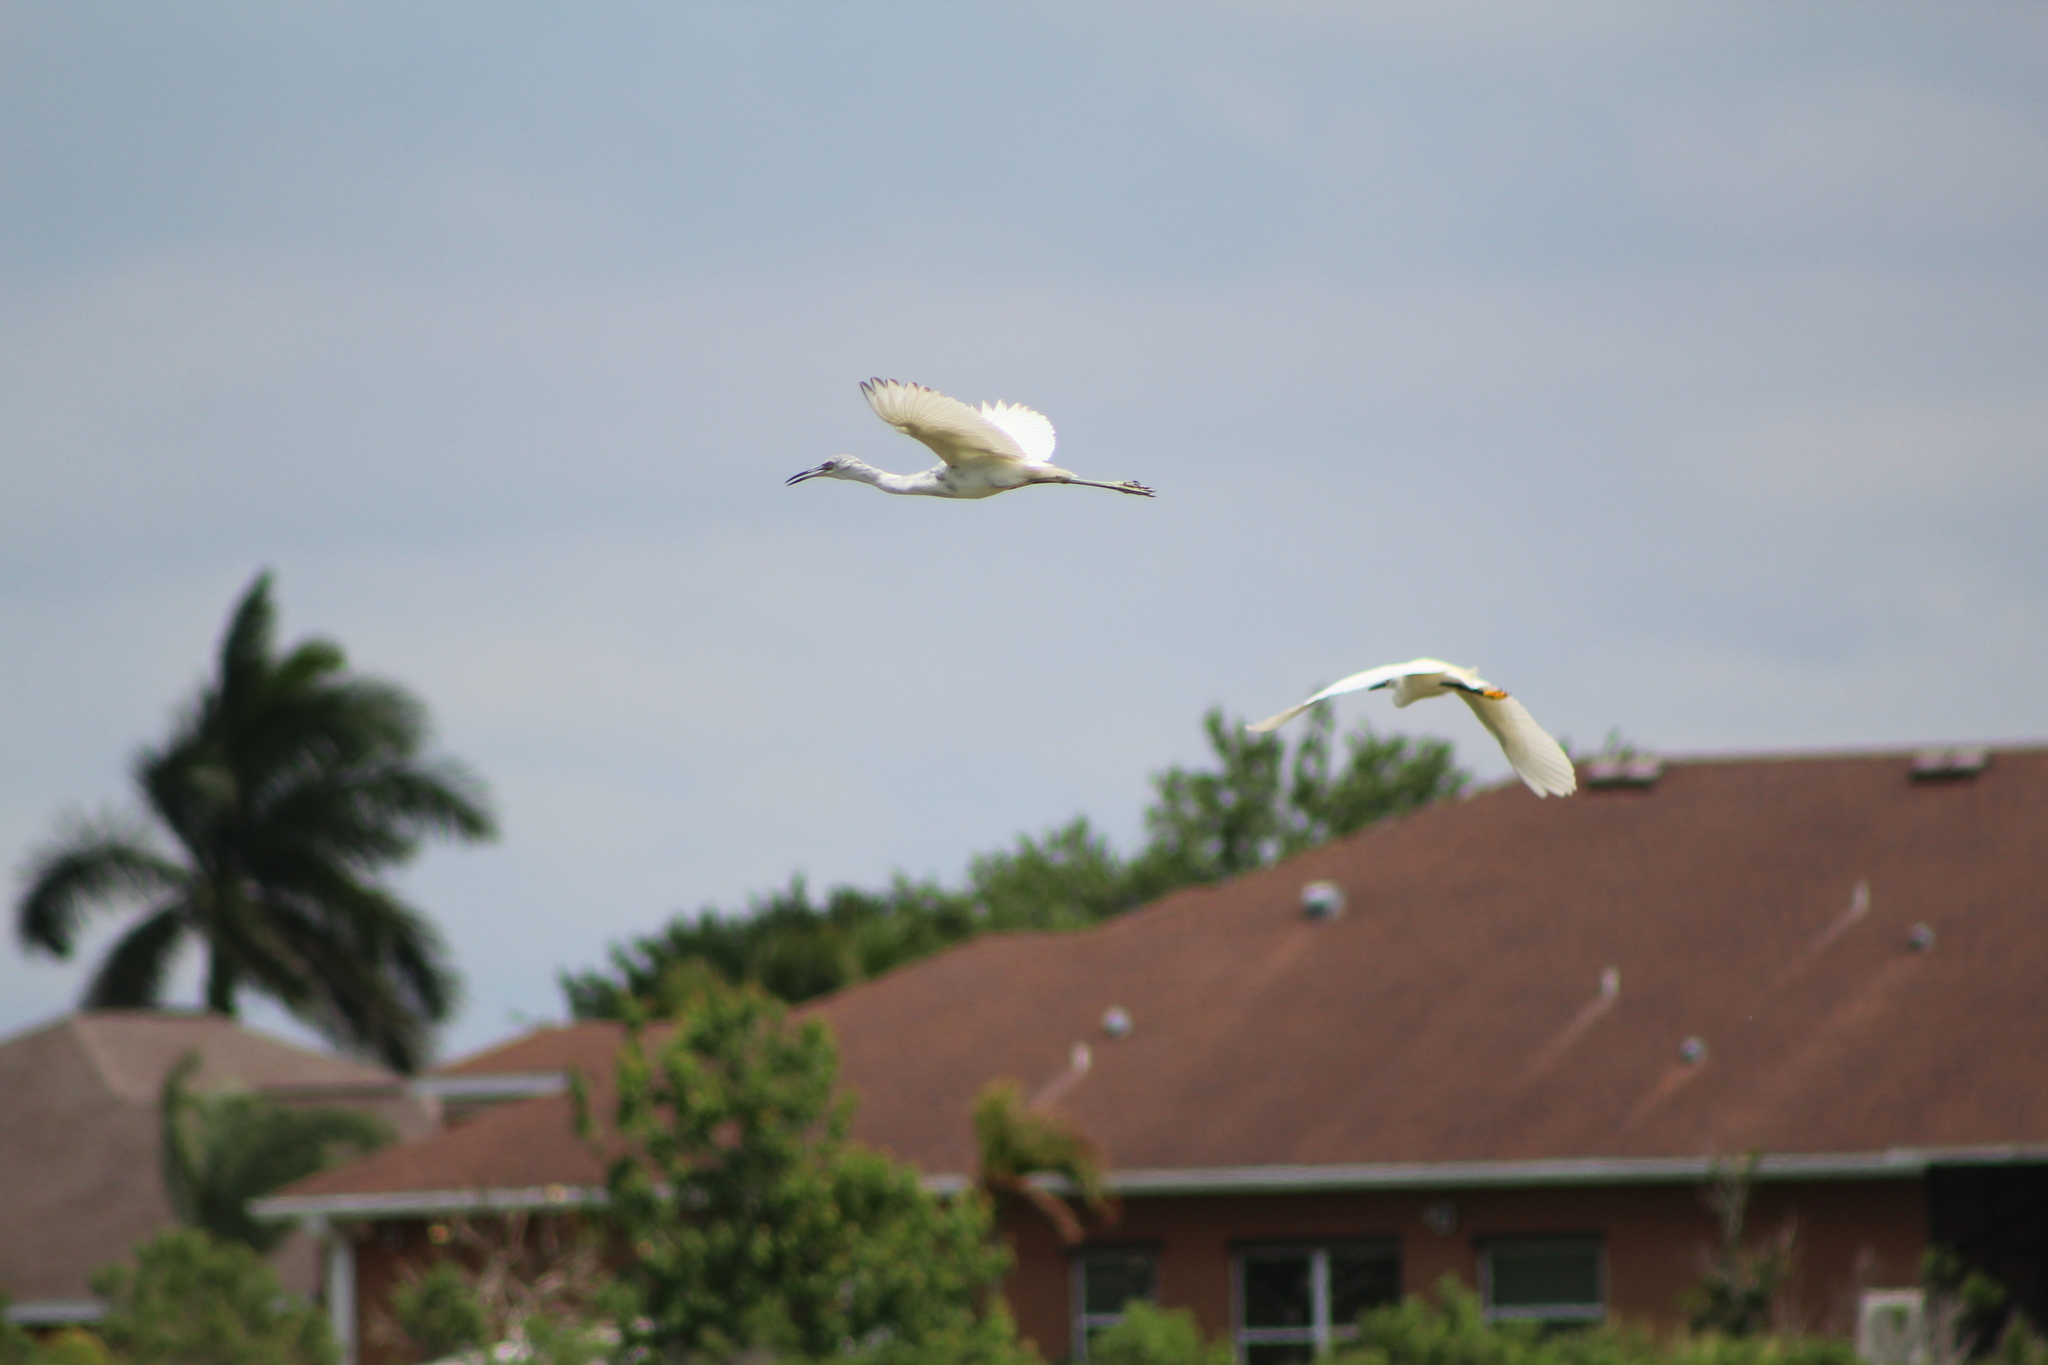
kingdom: Animalia
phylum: Chordata
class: Aves
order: Pelecaniformes
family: Ardeidae
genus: Egretta
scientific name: Egretta caerulea
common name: Little blue heron
